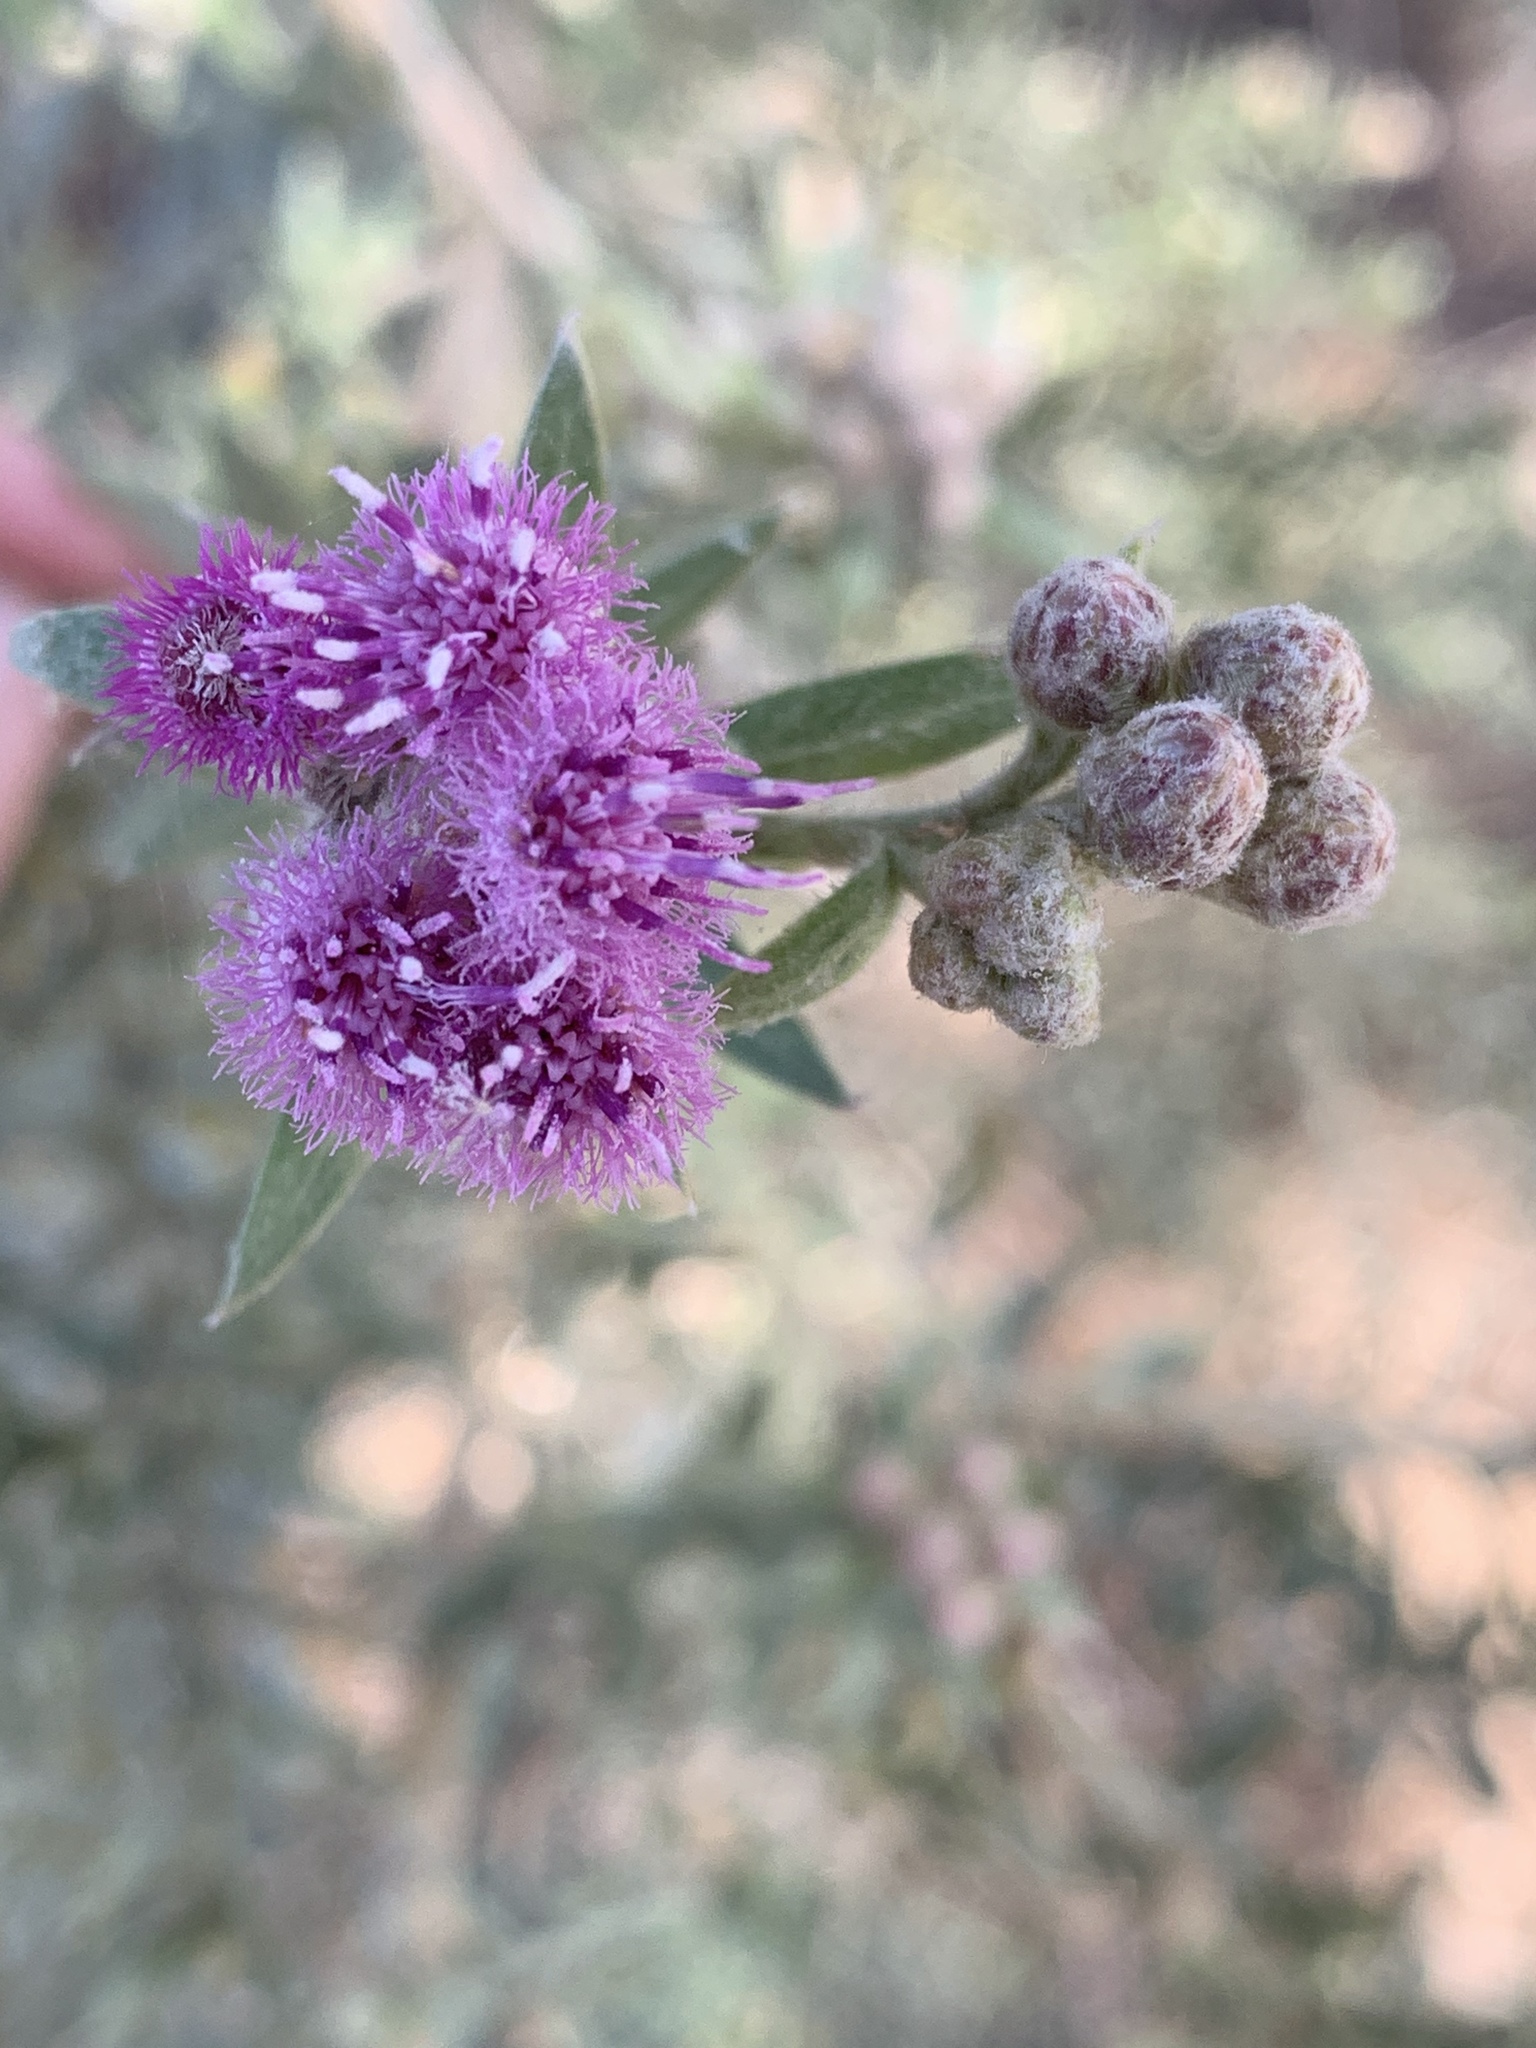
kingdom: Plantae
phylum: Tracheophyta
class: Magnoliopsida
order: Asterales
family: Asteraceae
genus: Pluchea
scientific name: Pluchea sericea
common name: Arrow-weed
